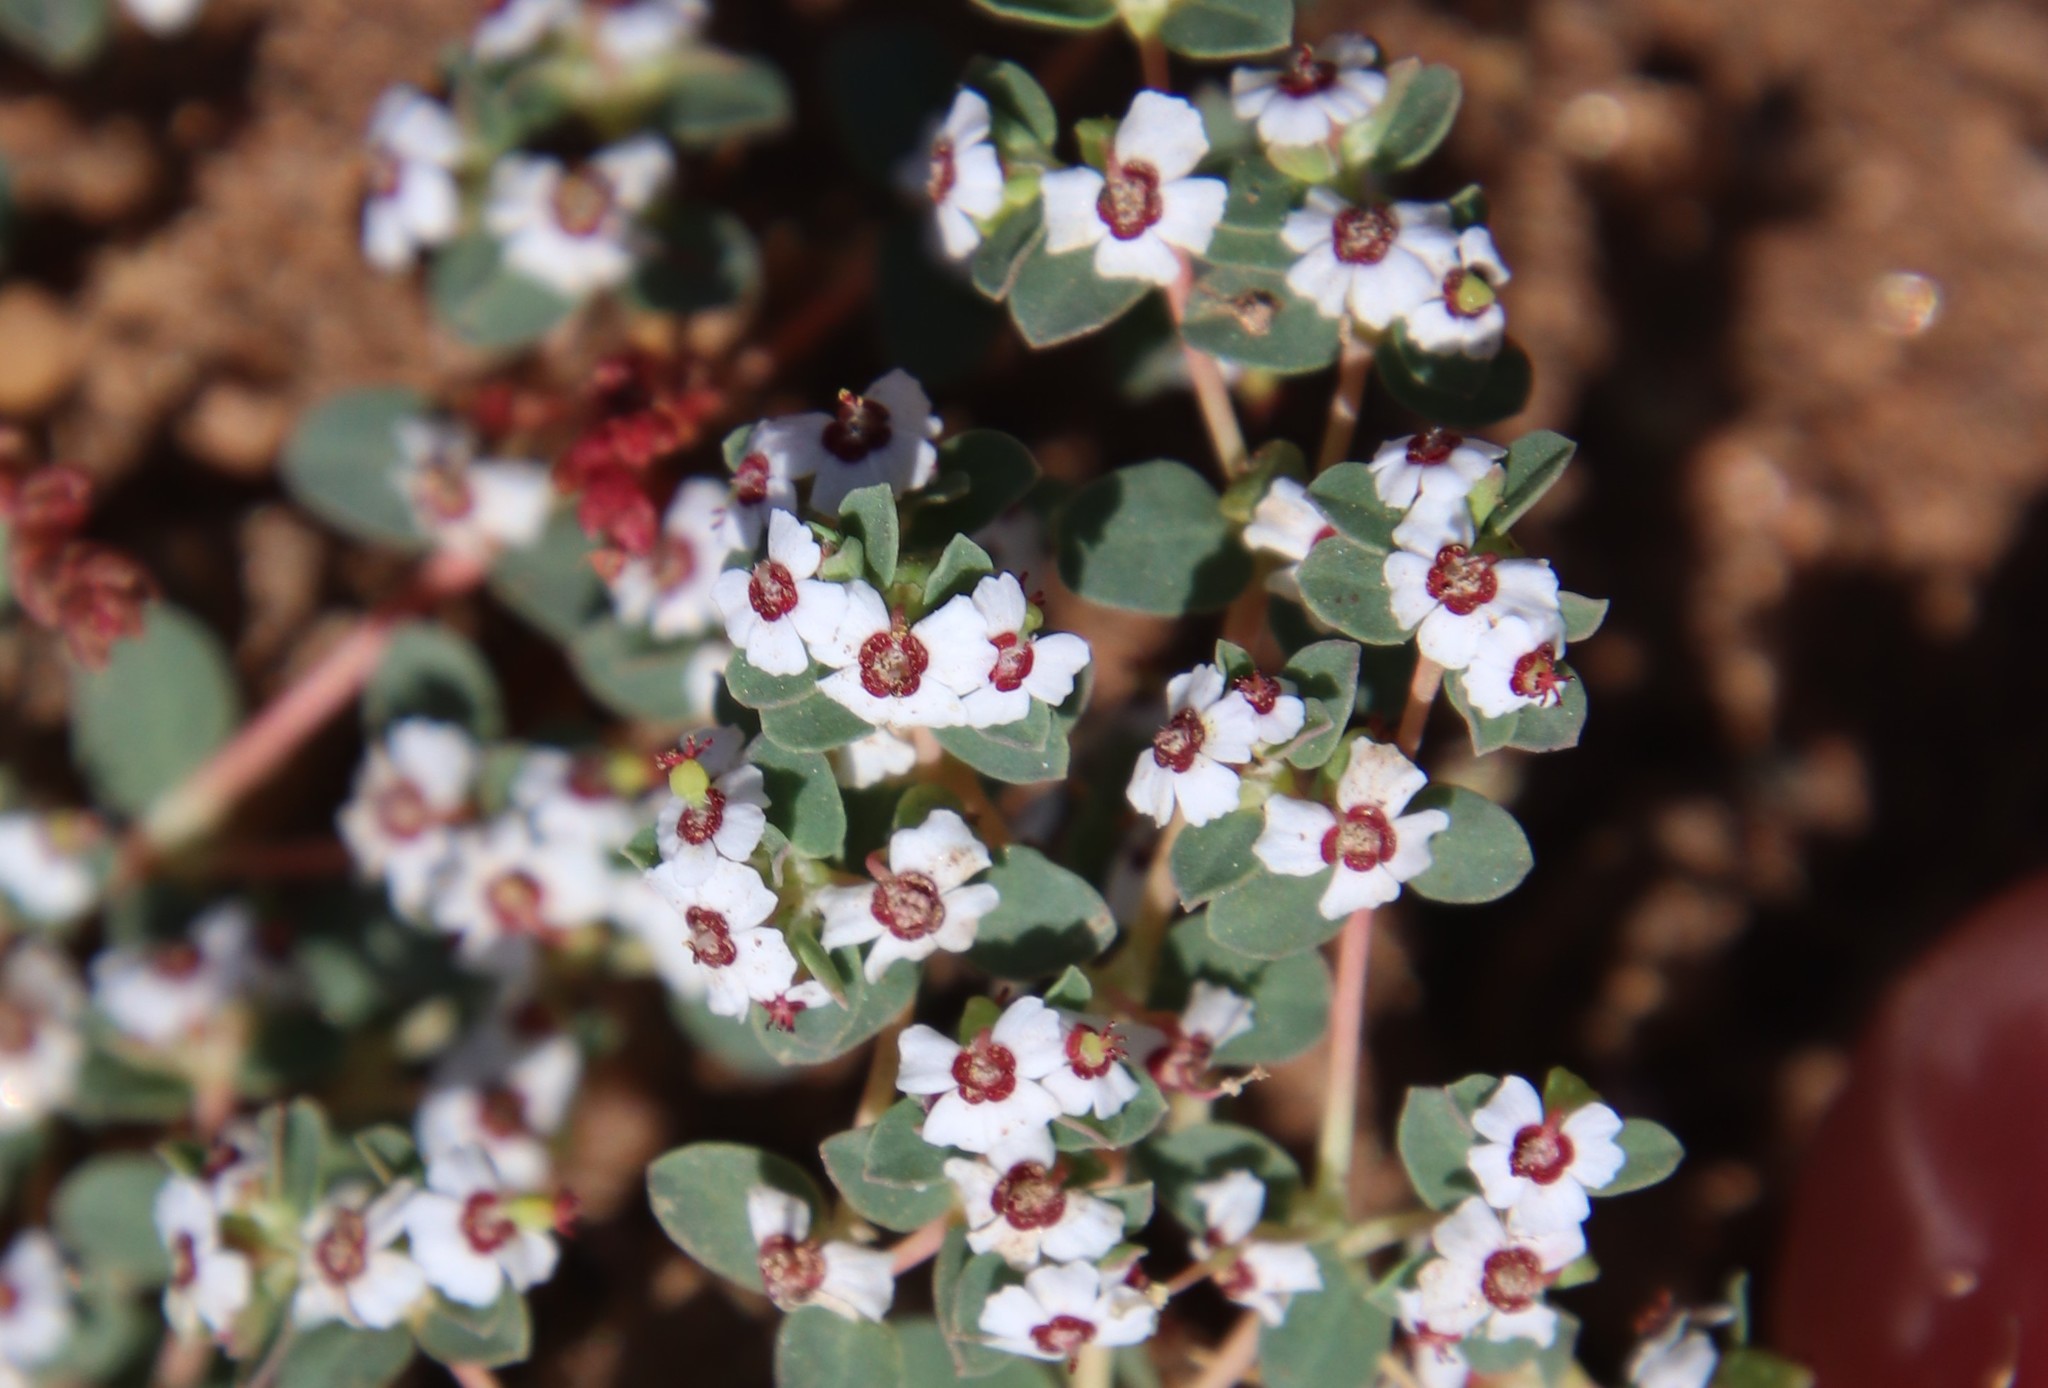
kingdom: Plantae
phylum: Tracheophyta
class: Magnoliopsida
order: Malpighiales
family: Euphorbiaceae
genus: Euphorbia
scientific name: Euphorbia polycarpa
